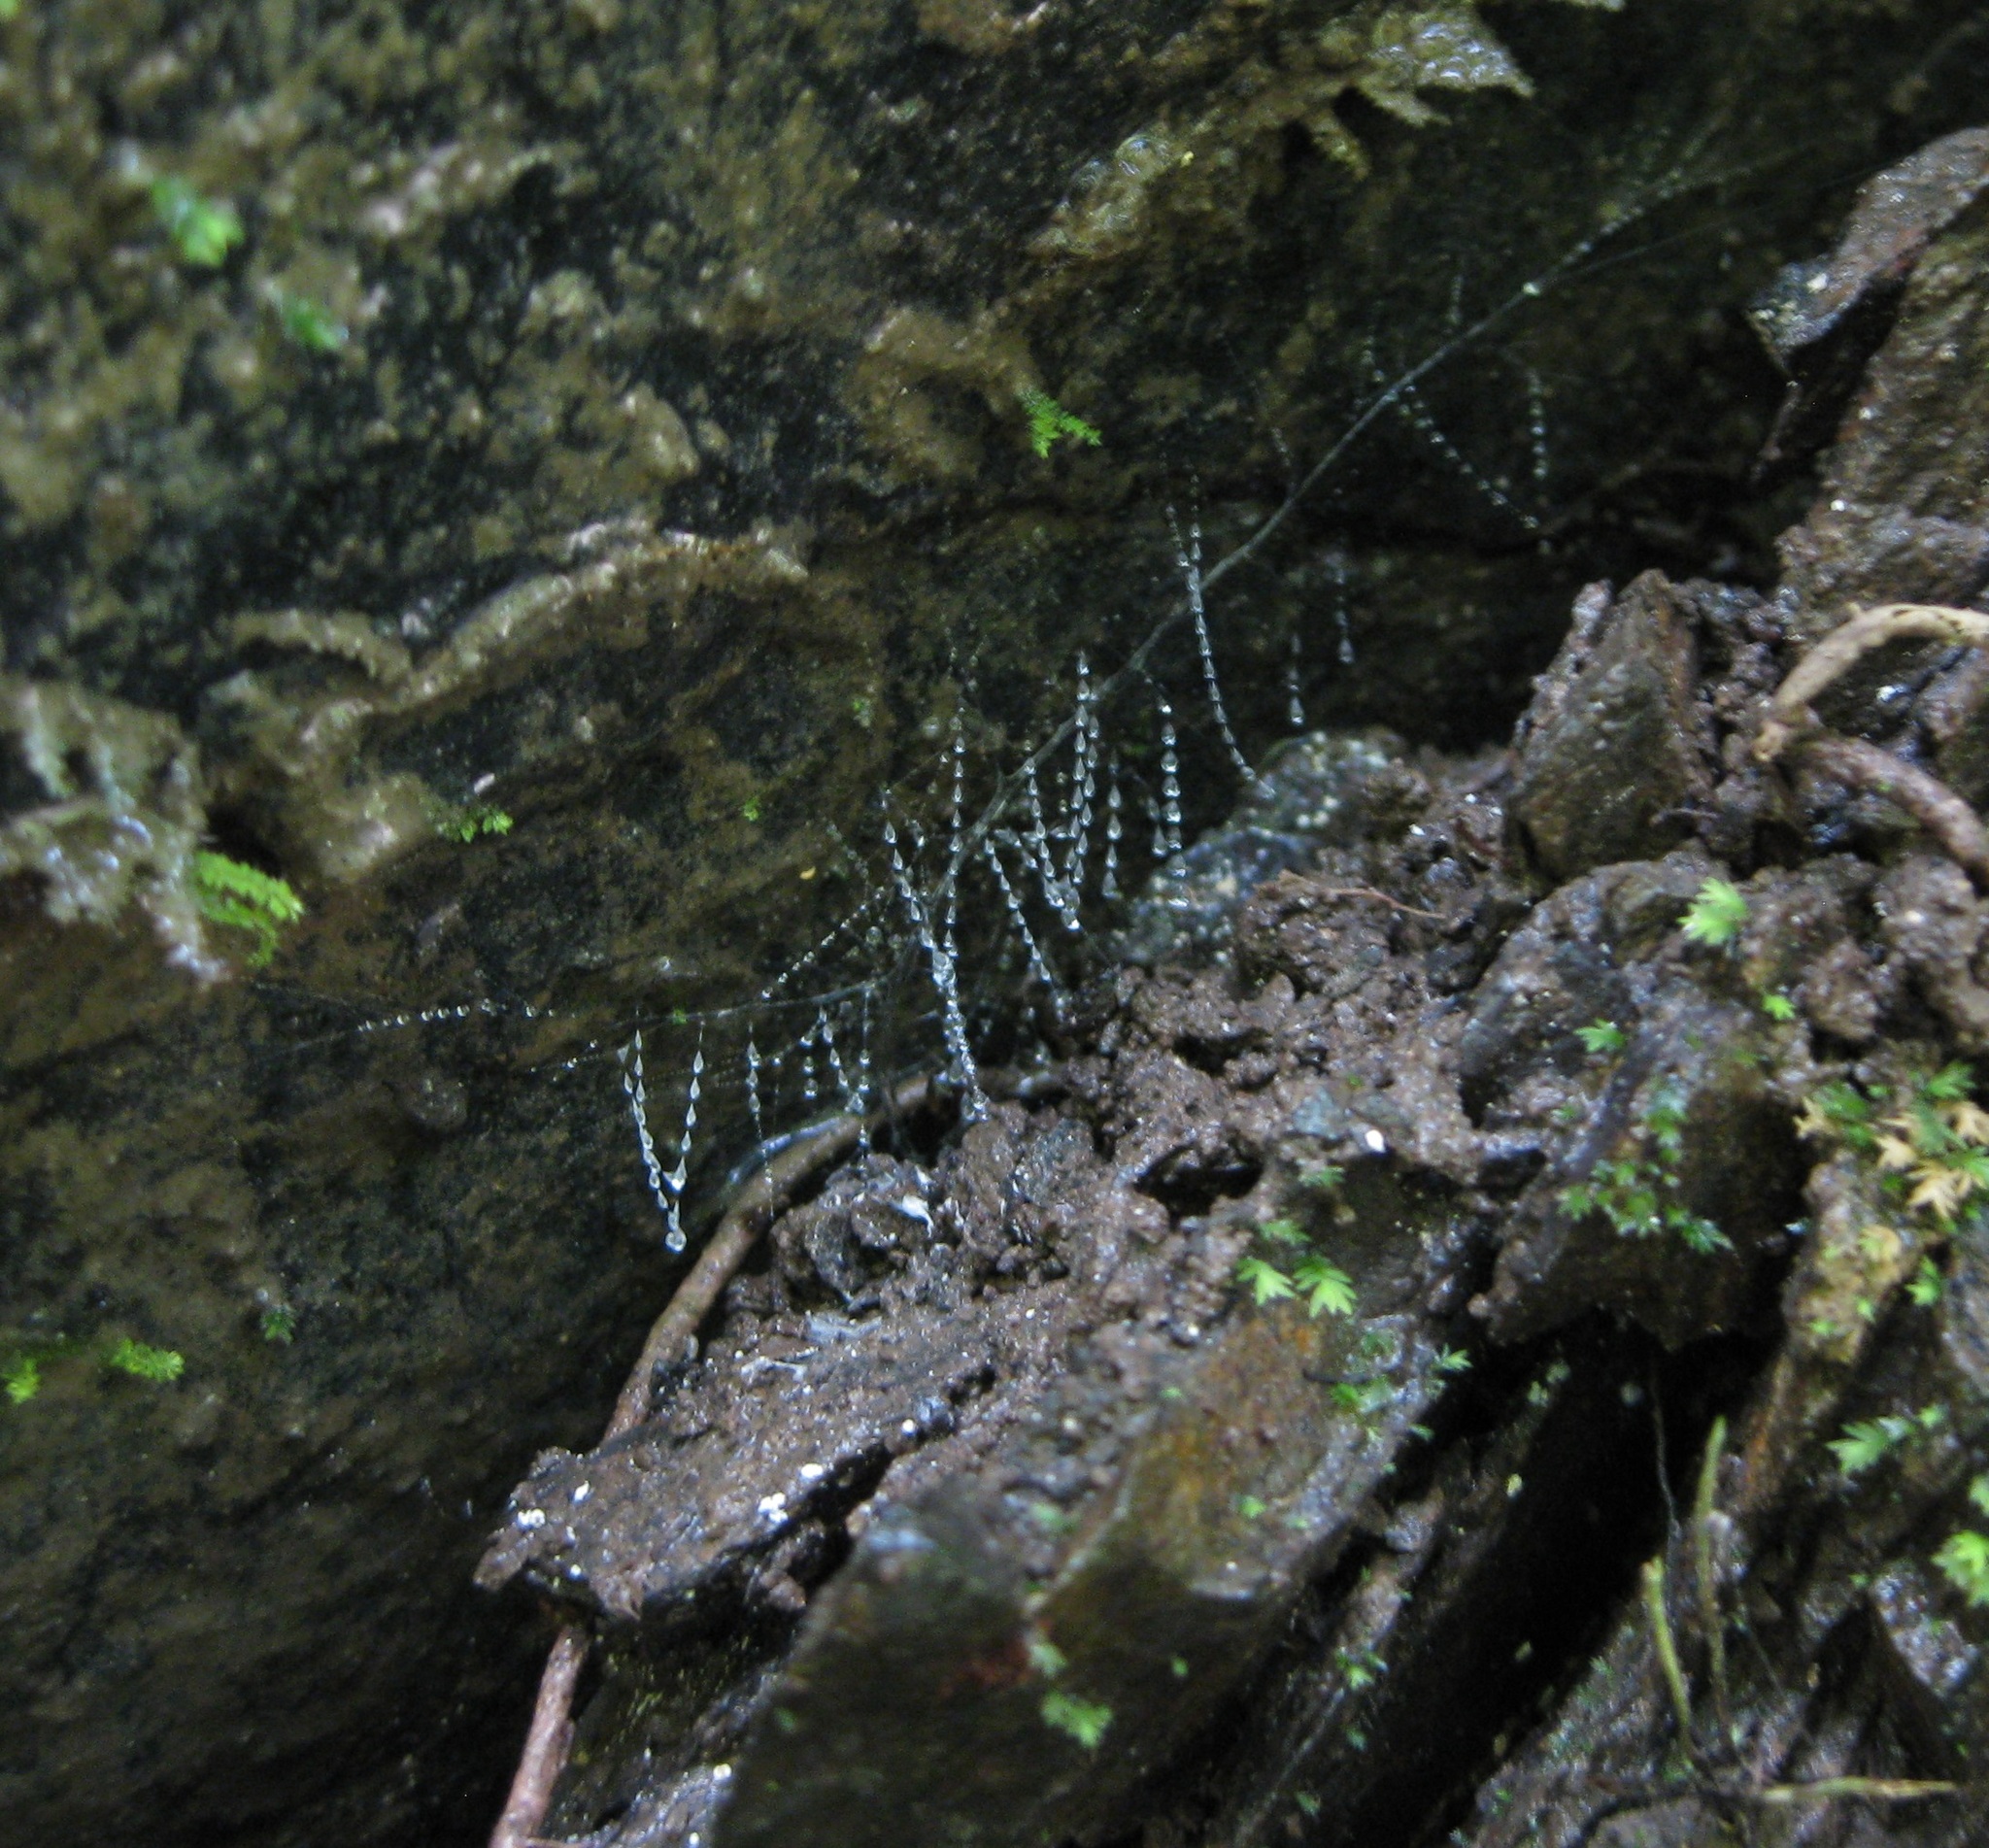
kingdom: Animalia
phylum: Arthropoda
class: Insecta
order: Diptera
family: Keroplatidae
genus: Arachnocampa
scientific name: Arachnocampa luminosa
